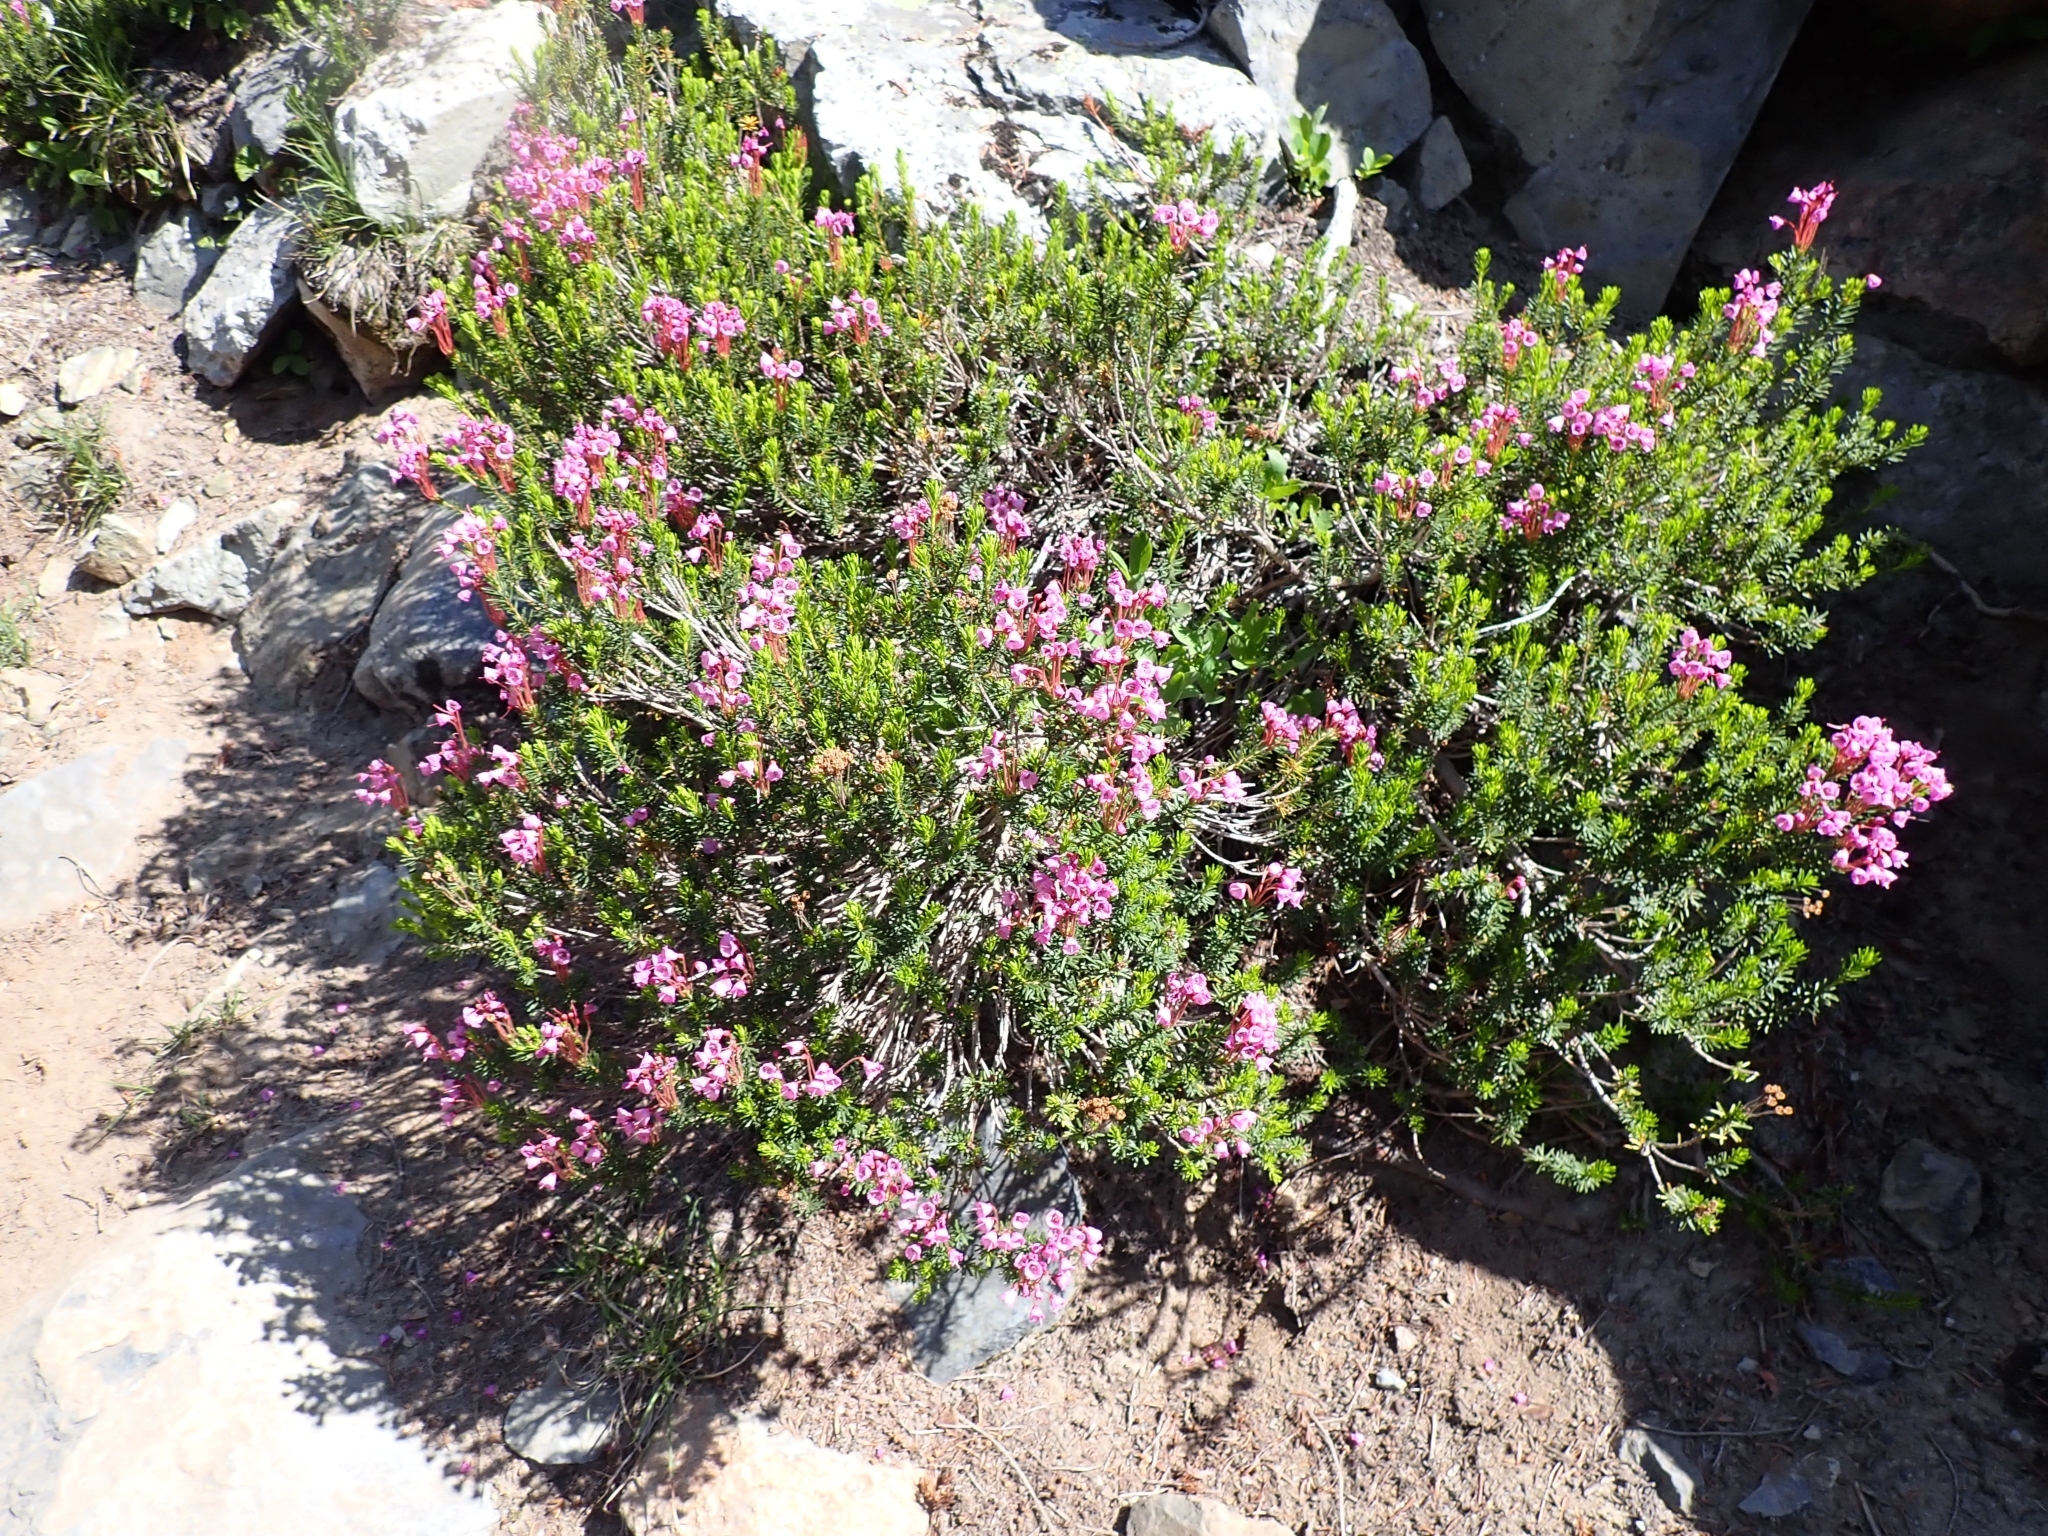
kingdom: Plantae
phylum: Tracheophyta
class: Magnoliopsida
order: Ericales
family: Ericaceae
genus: Phyllodoce
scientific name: Phyllodoce empetriformis
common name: Pink mountain heather
